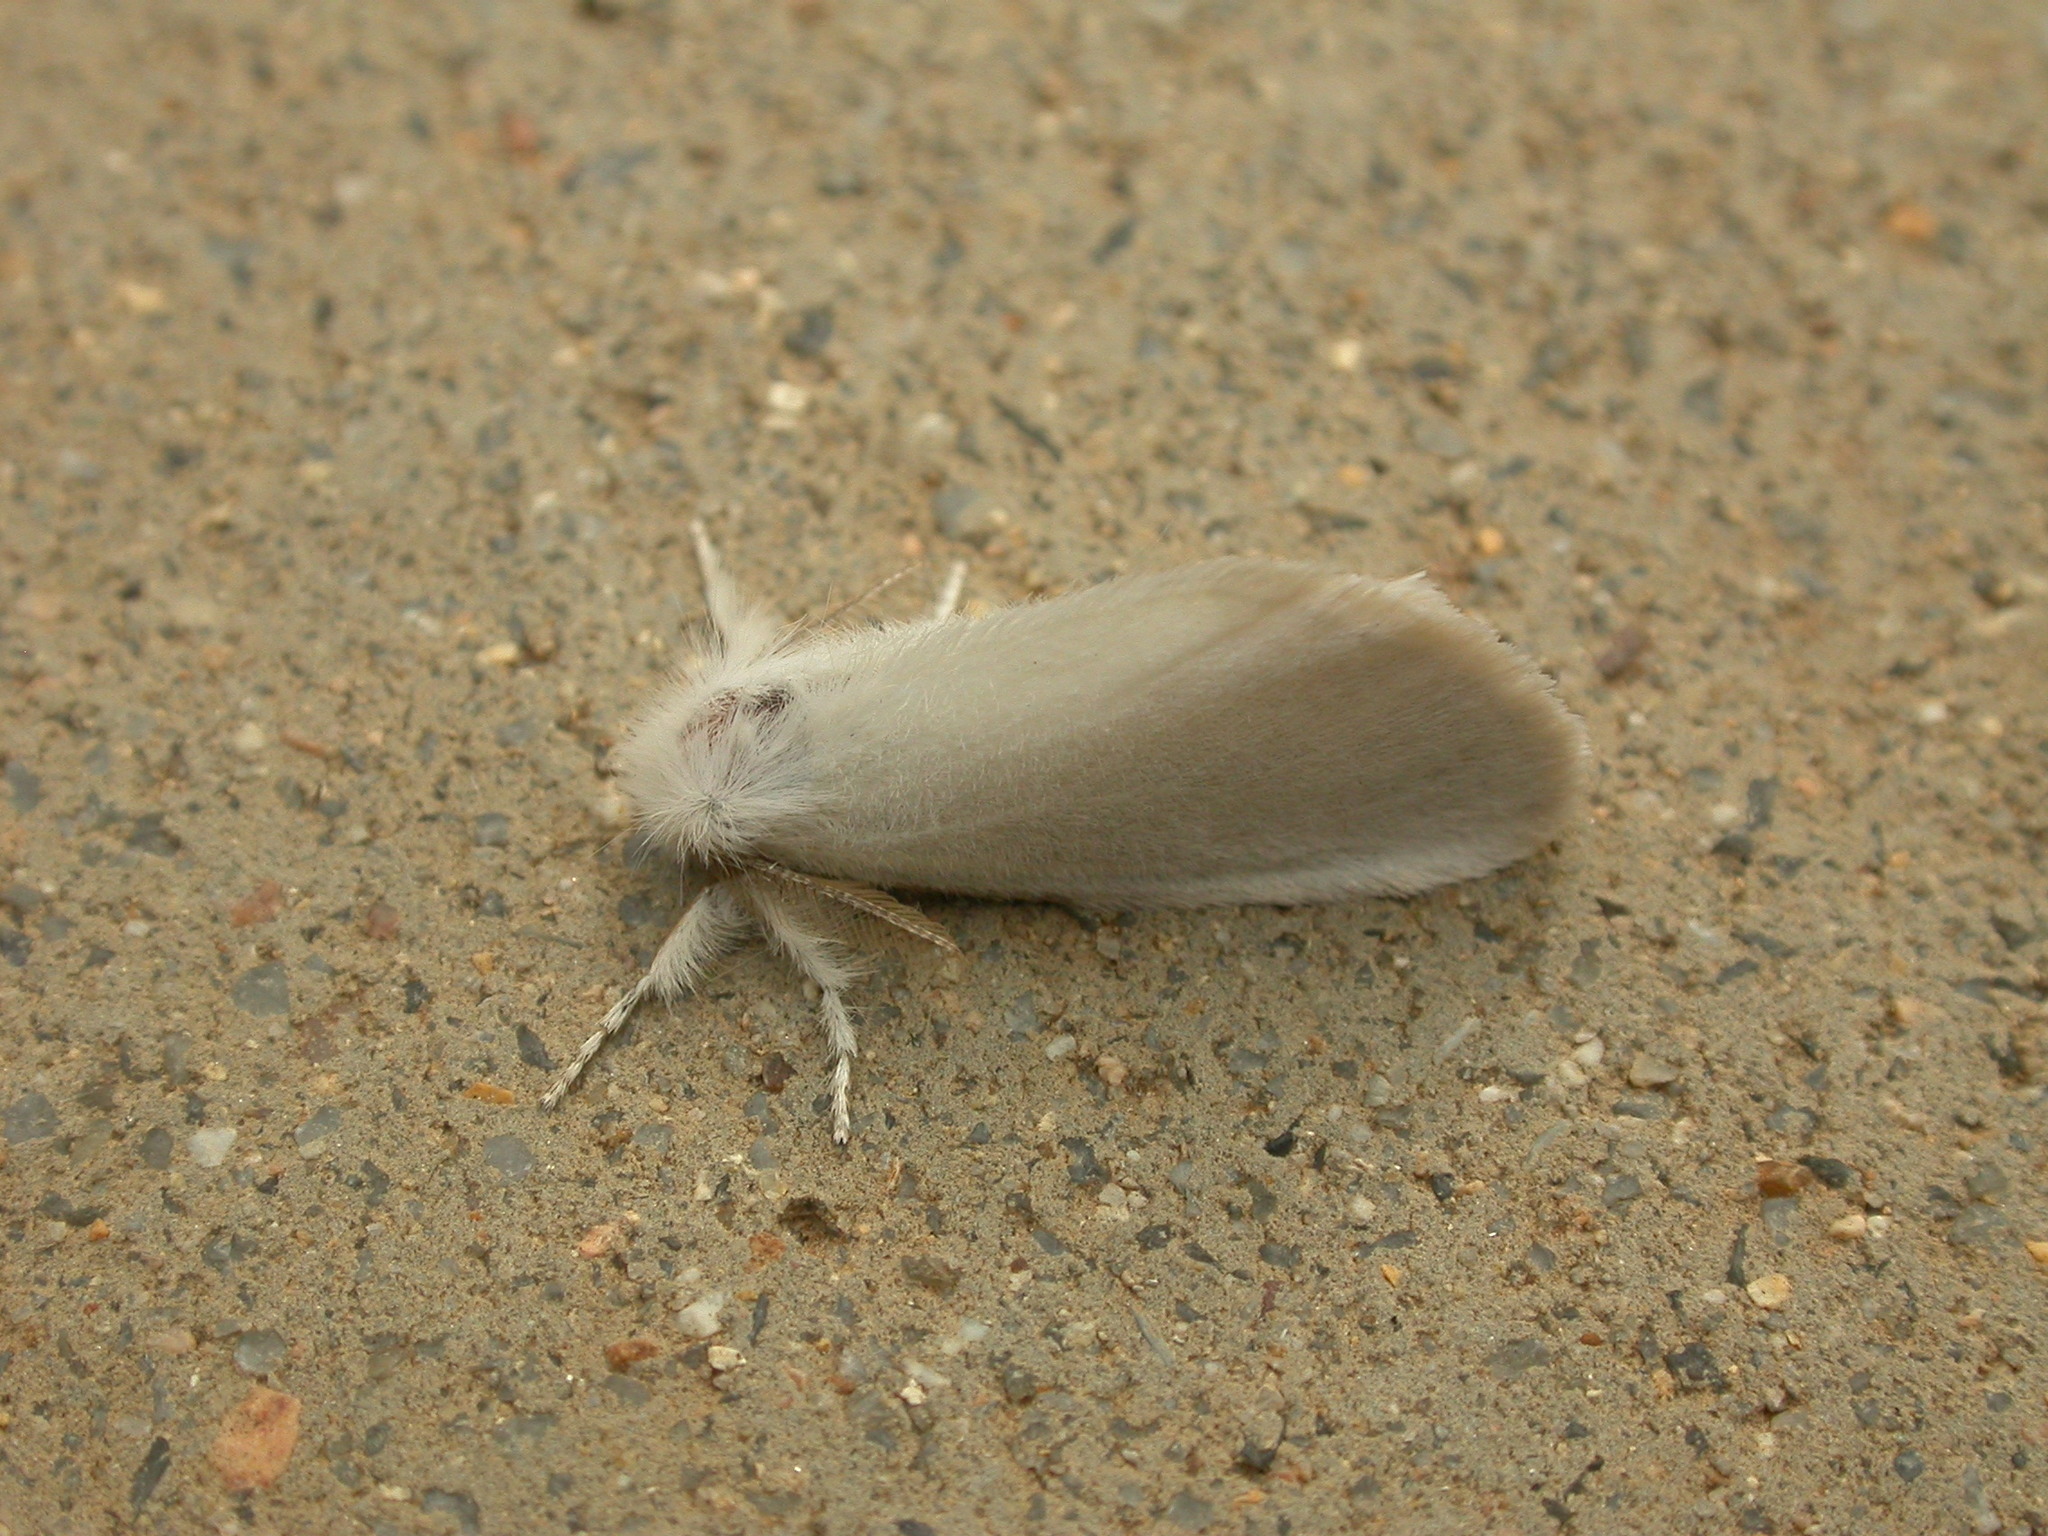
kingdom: Animalia
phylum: Arthropoda
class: Insecta
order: Lepidoptera
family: Erebidae
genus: Acyphas
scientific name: Acyphas chionitis
